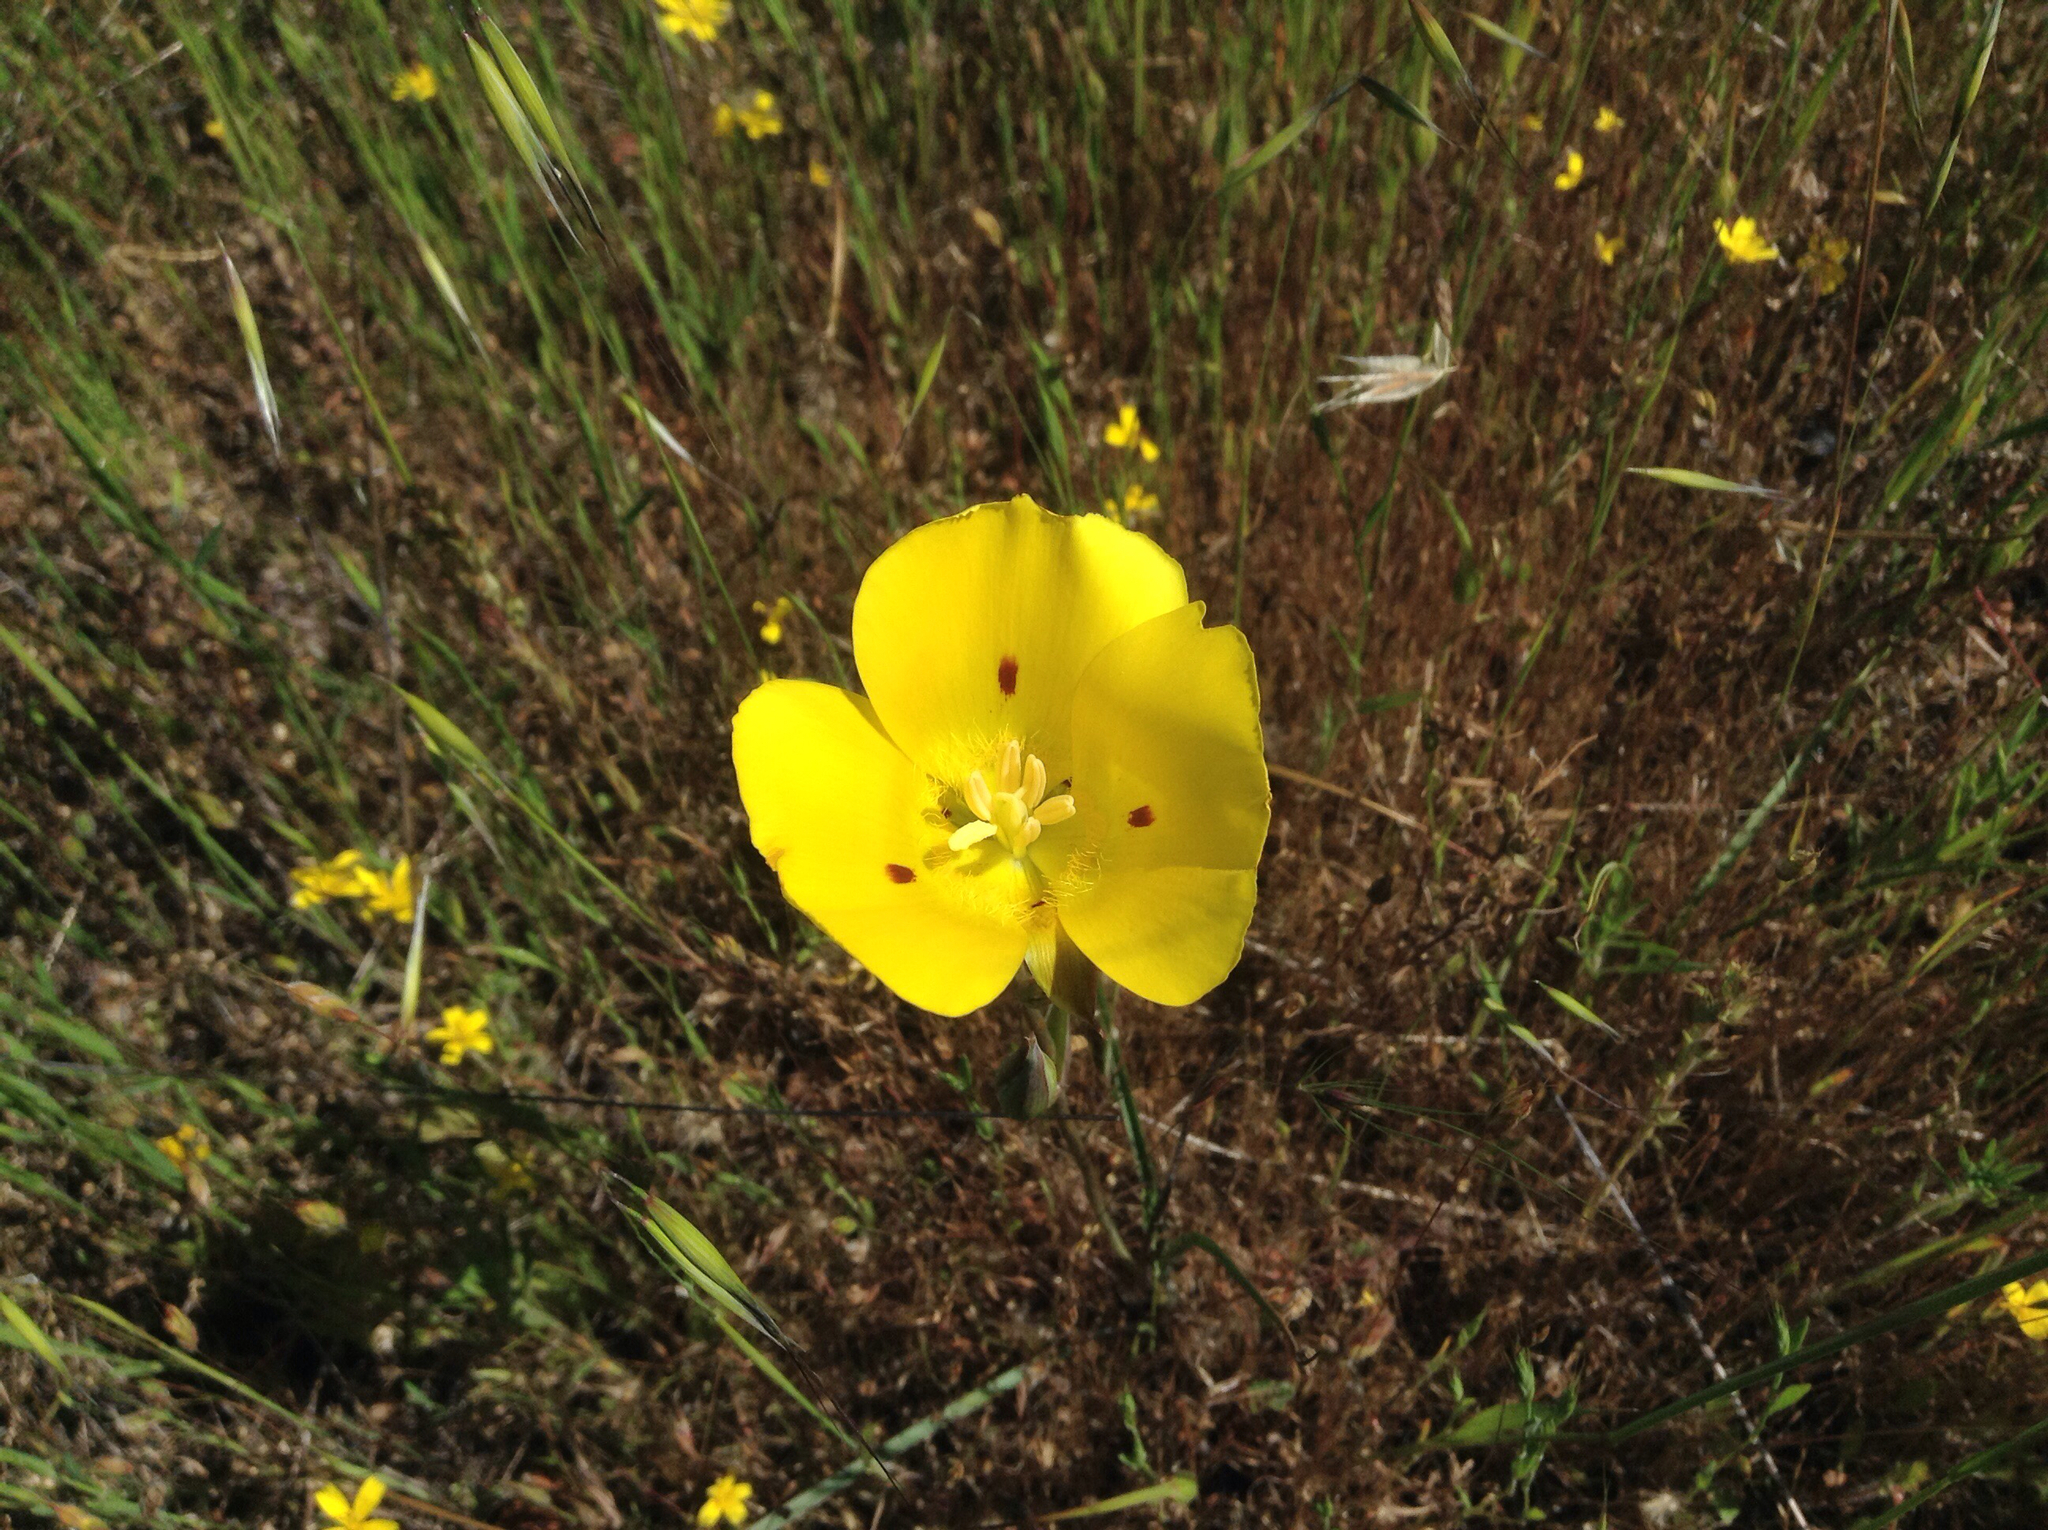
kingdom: Plantae
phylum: Tracheophyta
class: Liliopsida
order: Liliales
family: Liliaceae
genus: Calochortus
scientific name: Calochortus luteus
